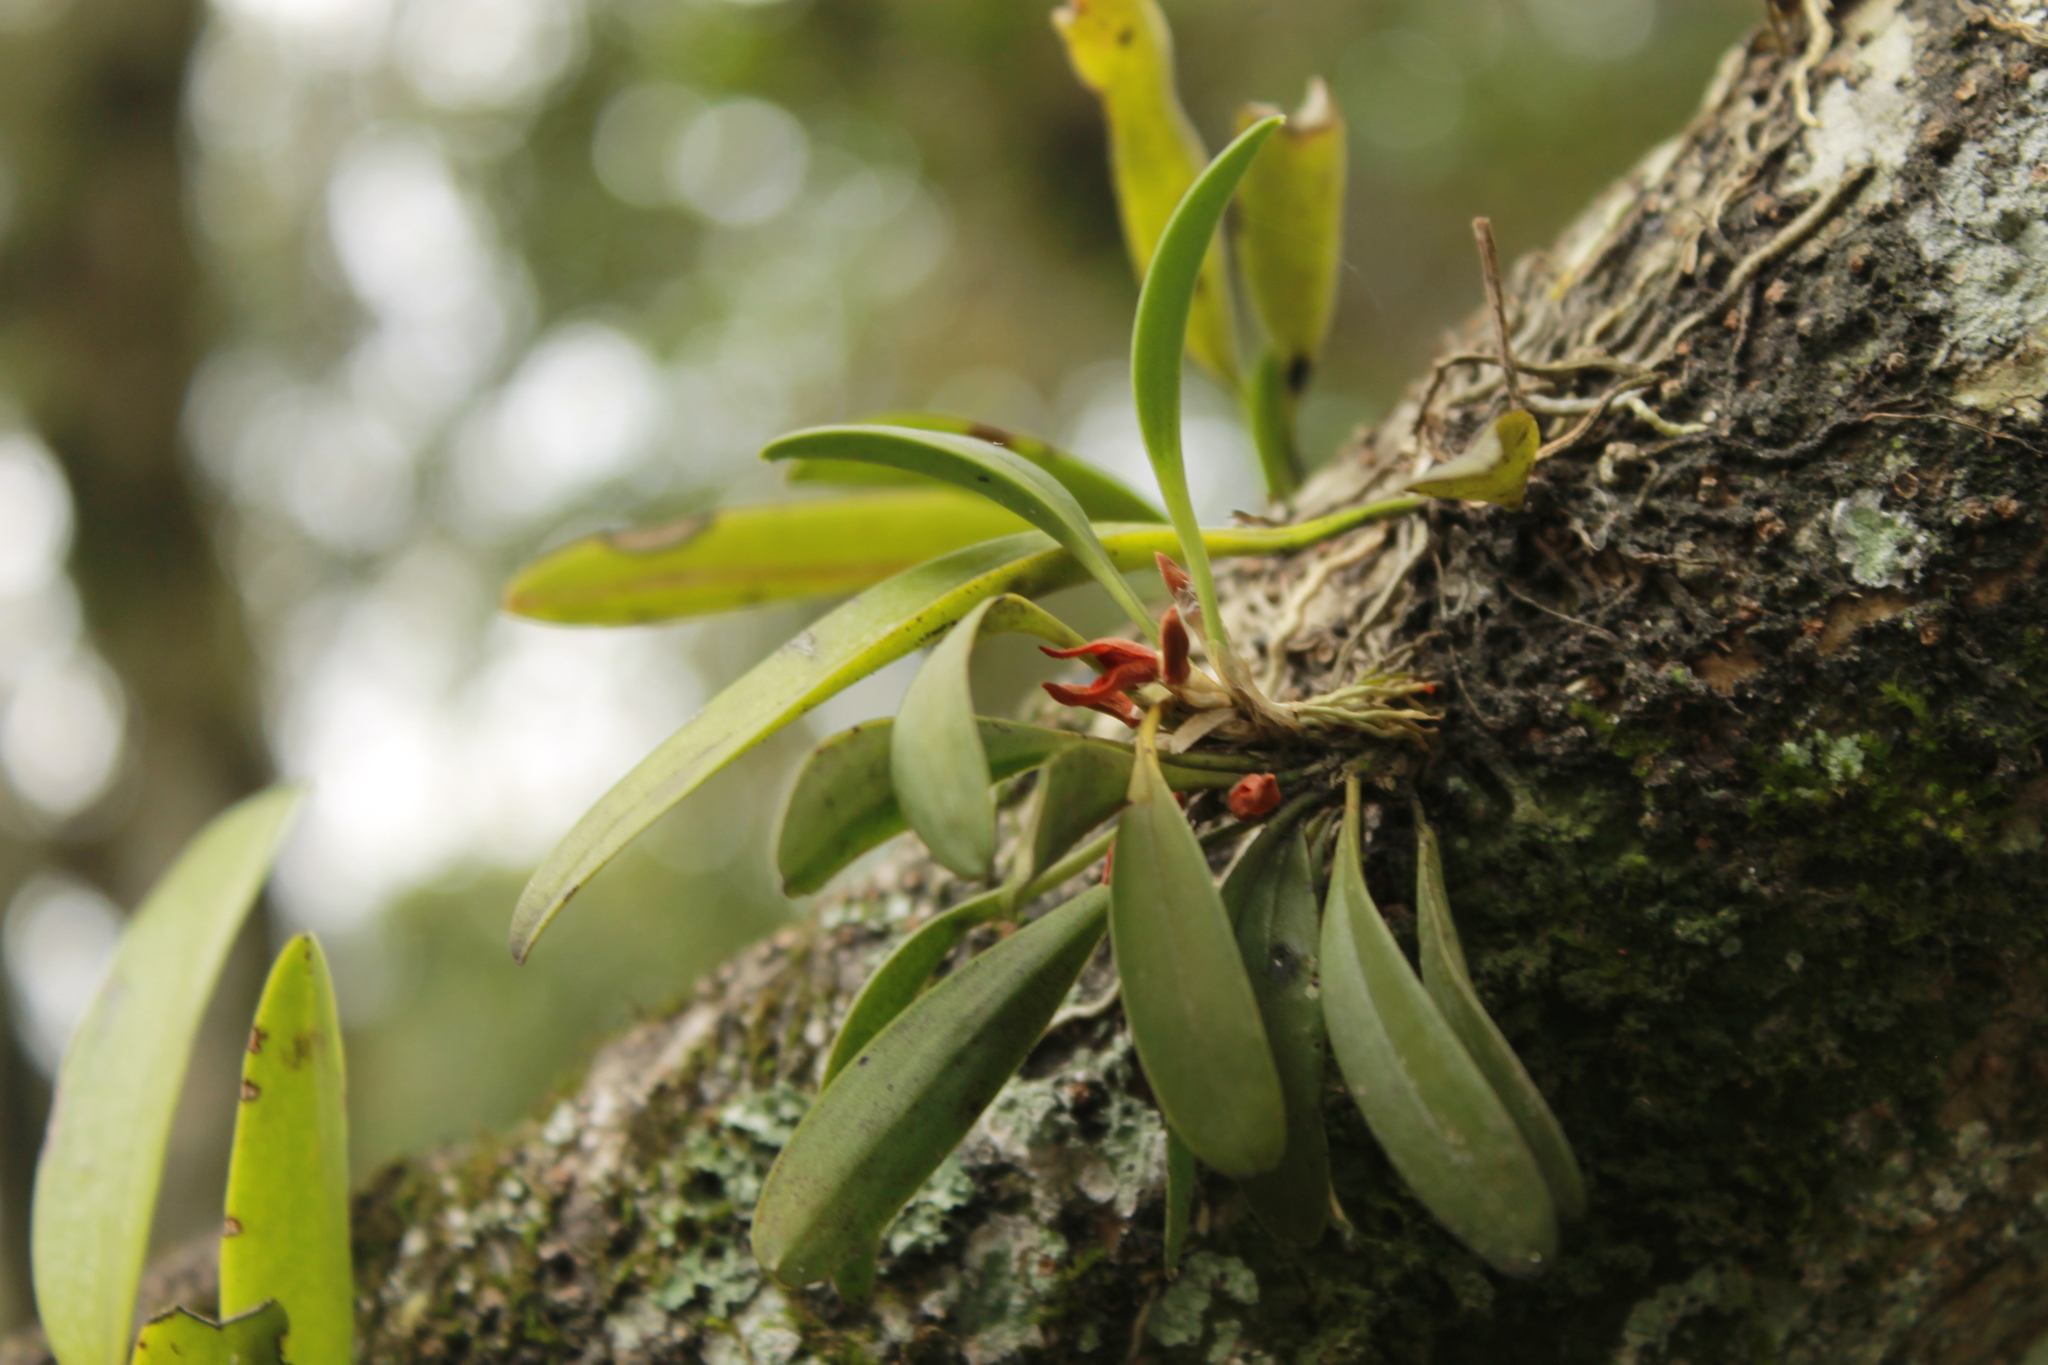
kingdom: Plantae
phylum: Tracheophyta
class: Liliopsida
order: Asparagales
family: Orchidaceae
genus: Specklinia
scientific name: Specklinia tribuloides
